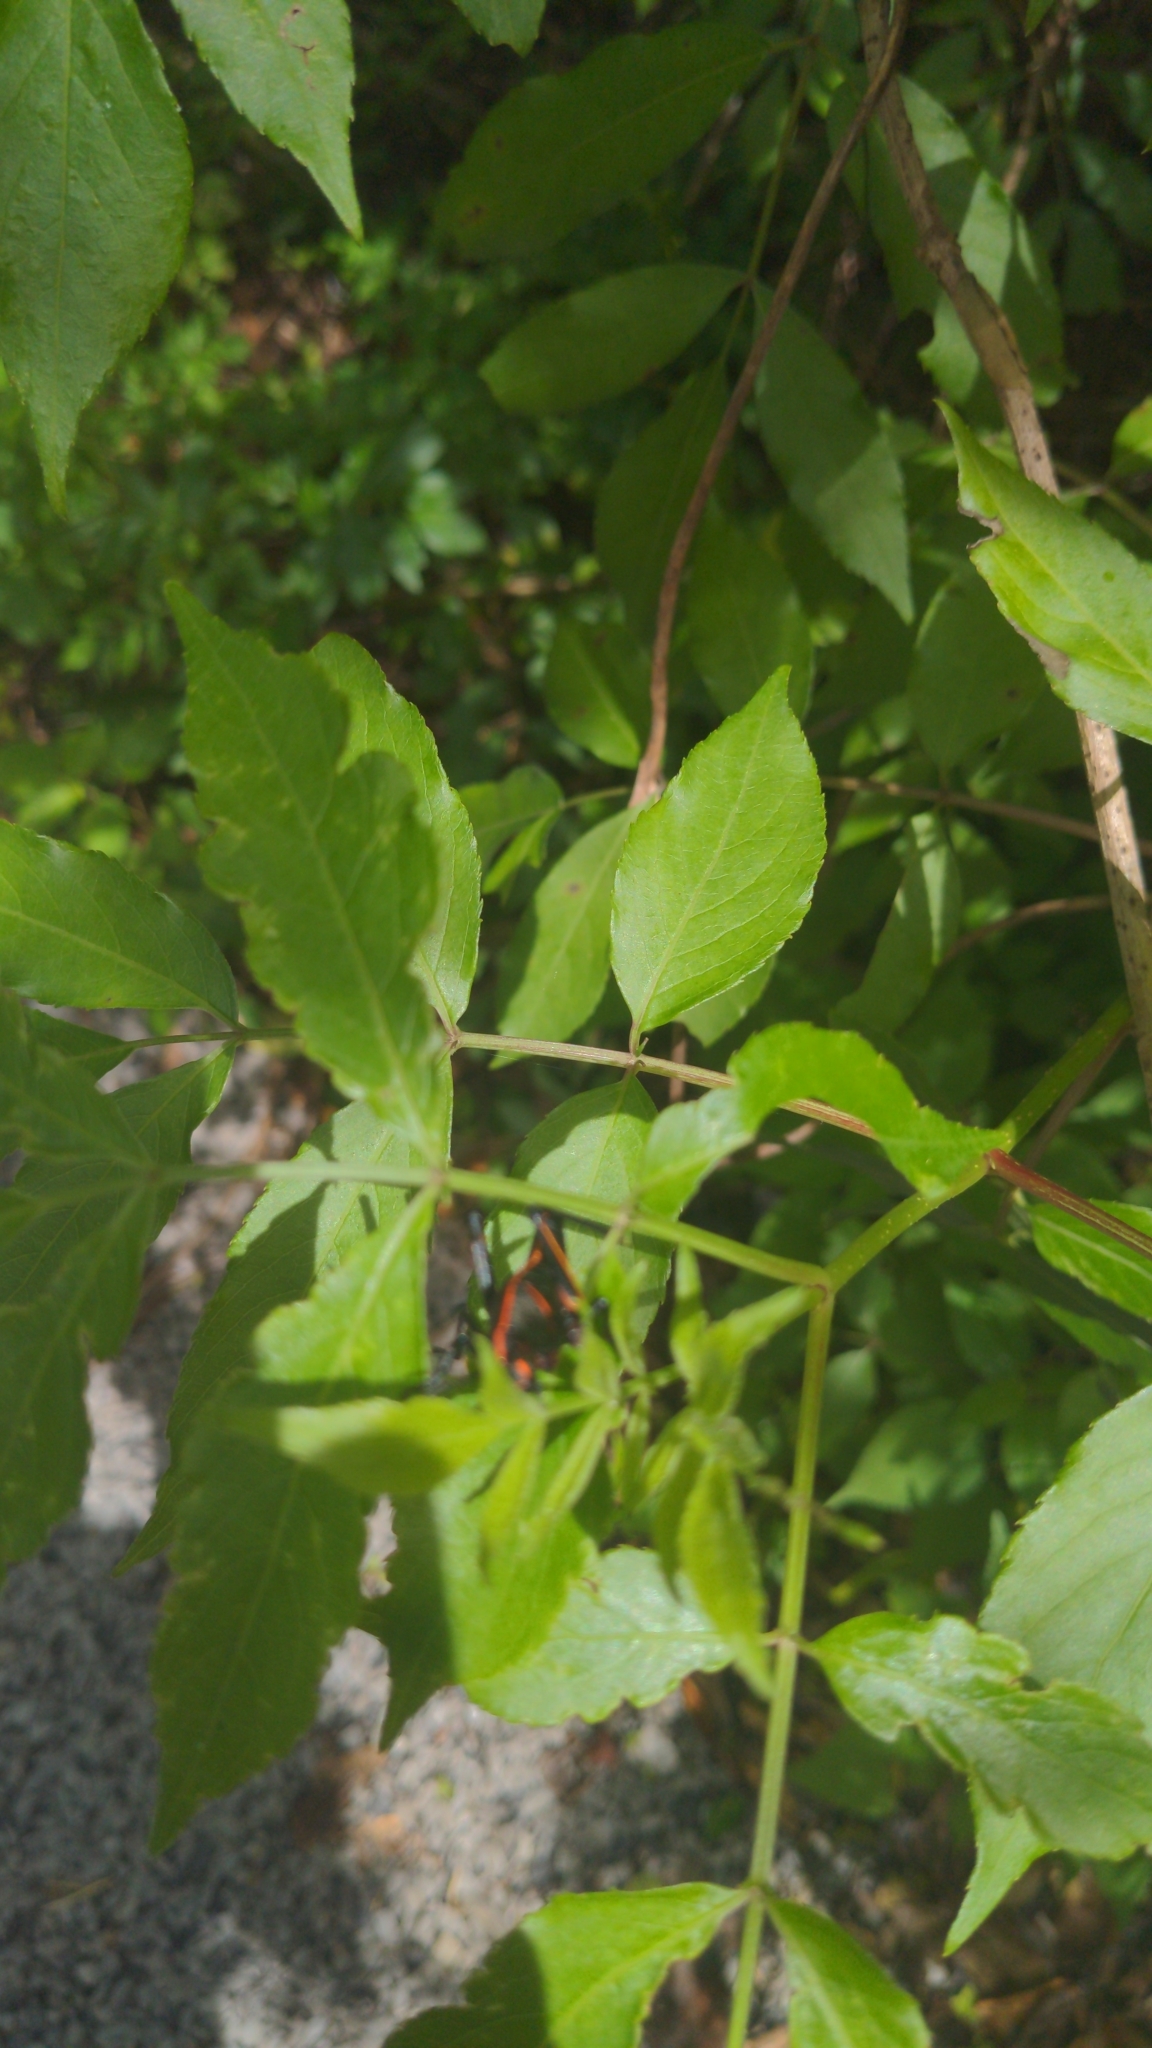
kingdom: Animalia
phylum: Arthropoda
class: Insecta
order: Orthoptera
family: Romaleidae
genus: Romalea
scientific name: Romalea microptera
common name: Eastern lubber grasshopper
